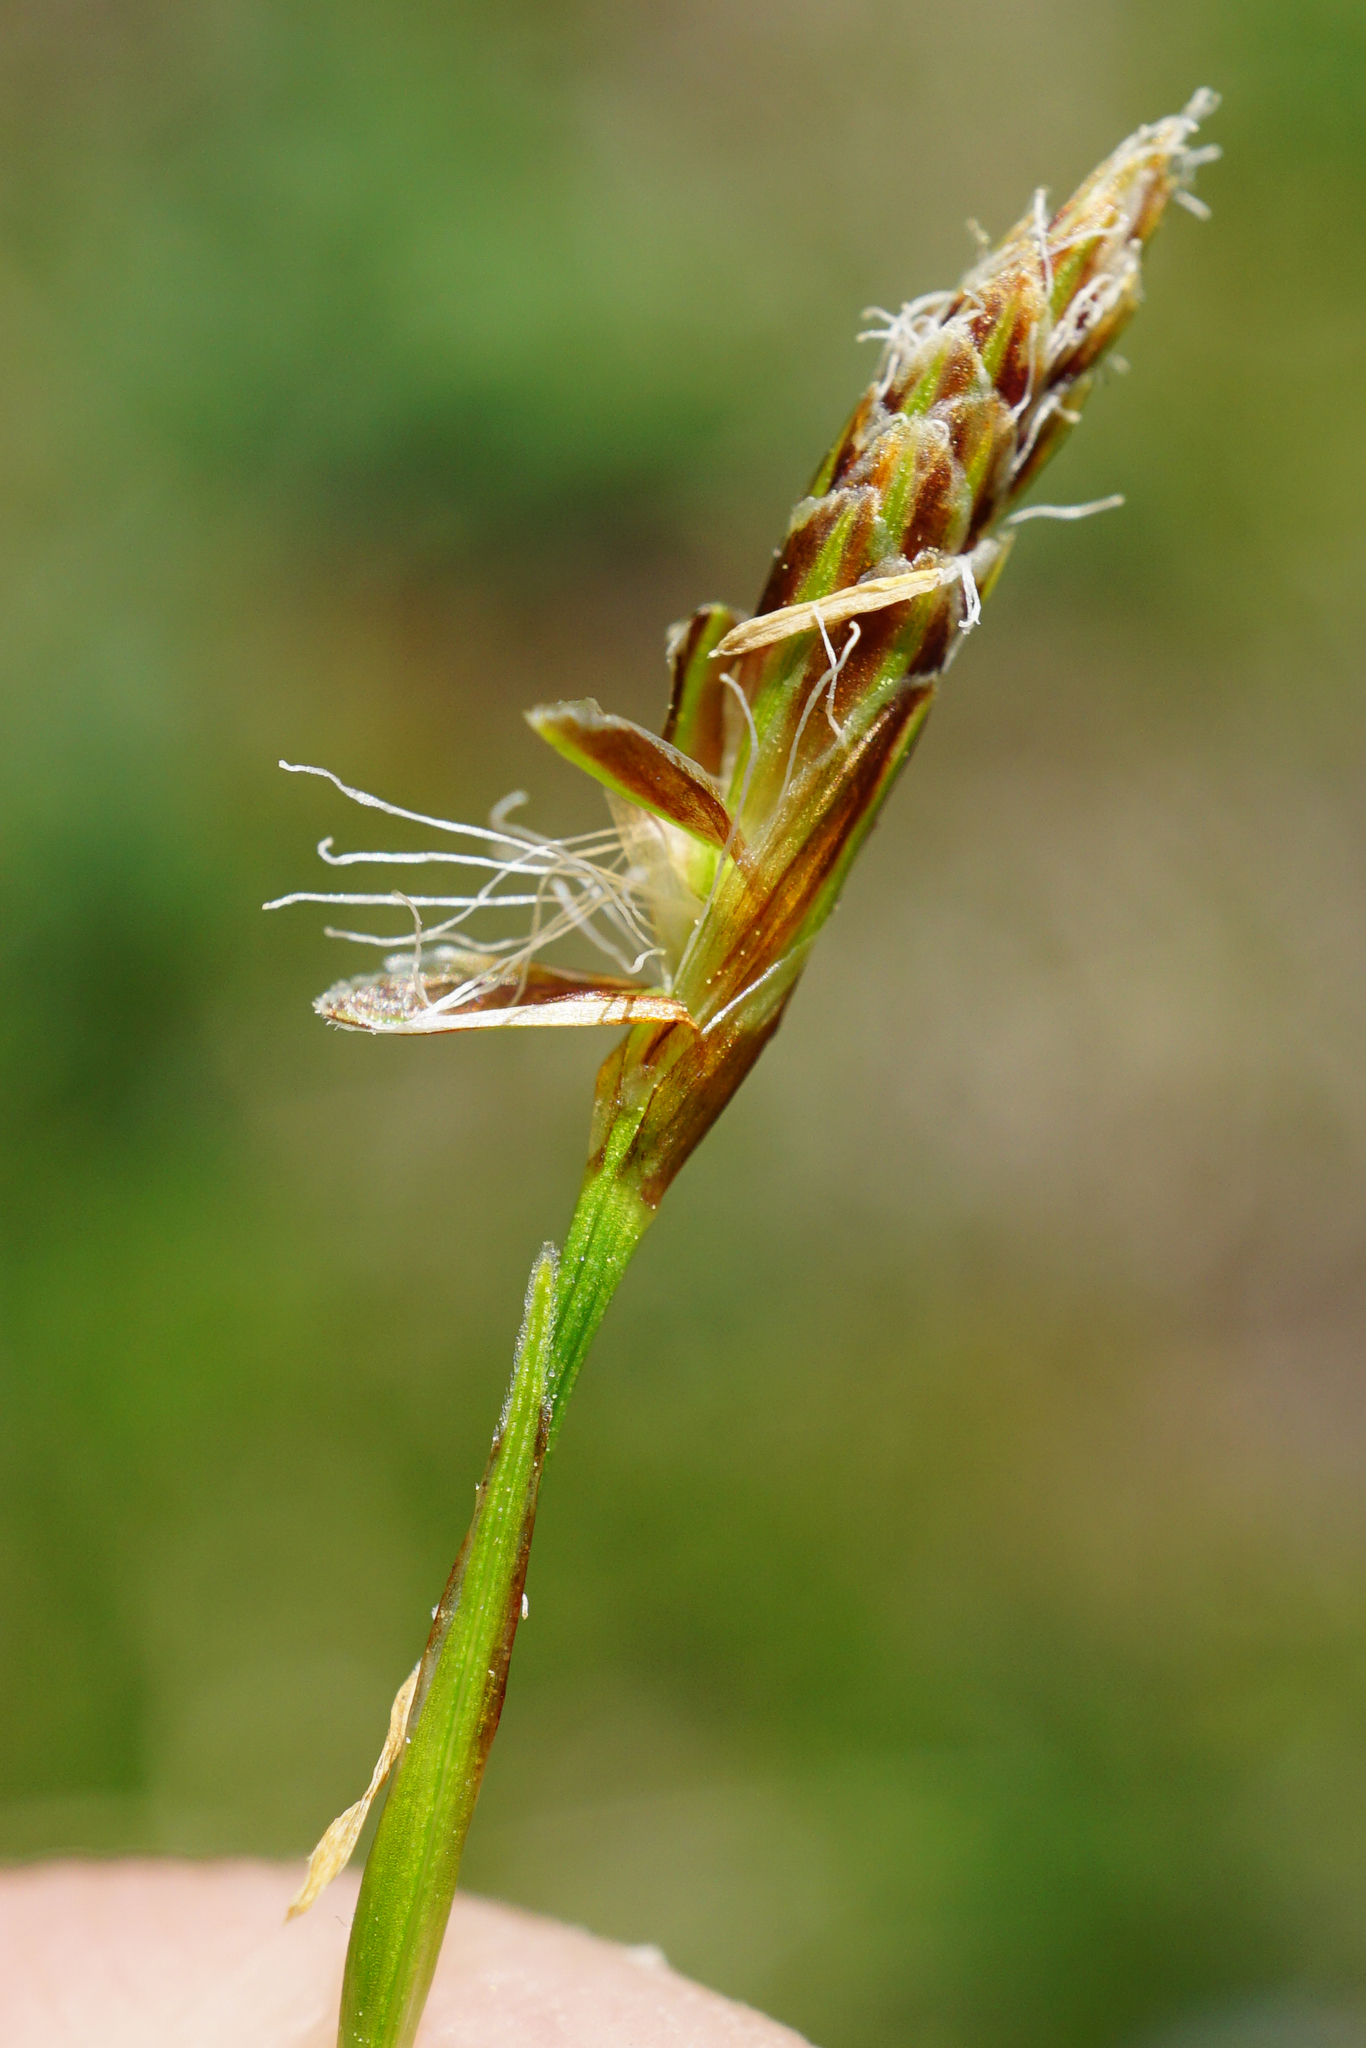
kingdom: Plantae
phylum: Tracheophyta
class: Liliopsida
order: Poales
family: Cyperaceae
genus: Carex
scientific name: Carex firma
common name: Dwarf pillow sedge
